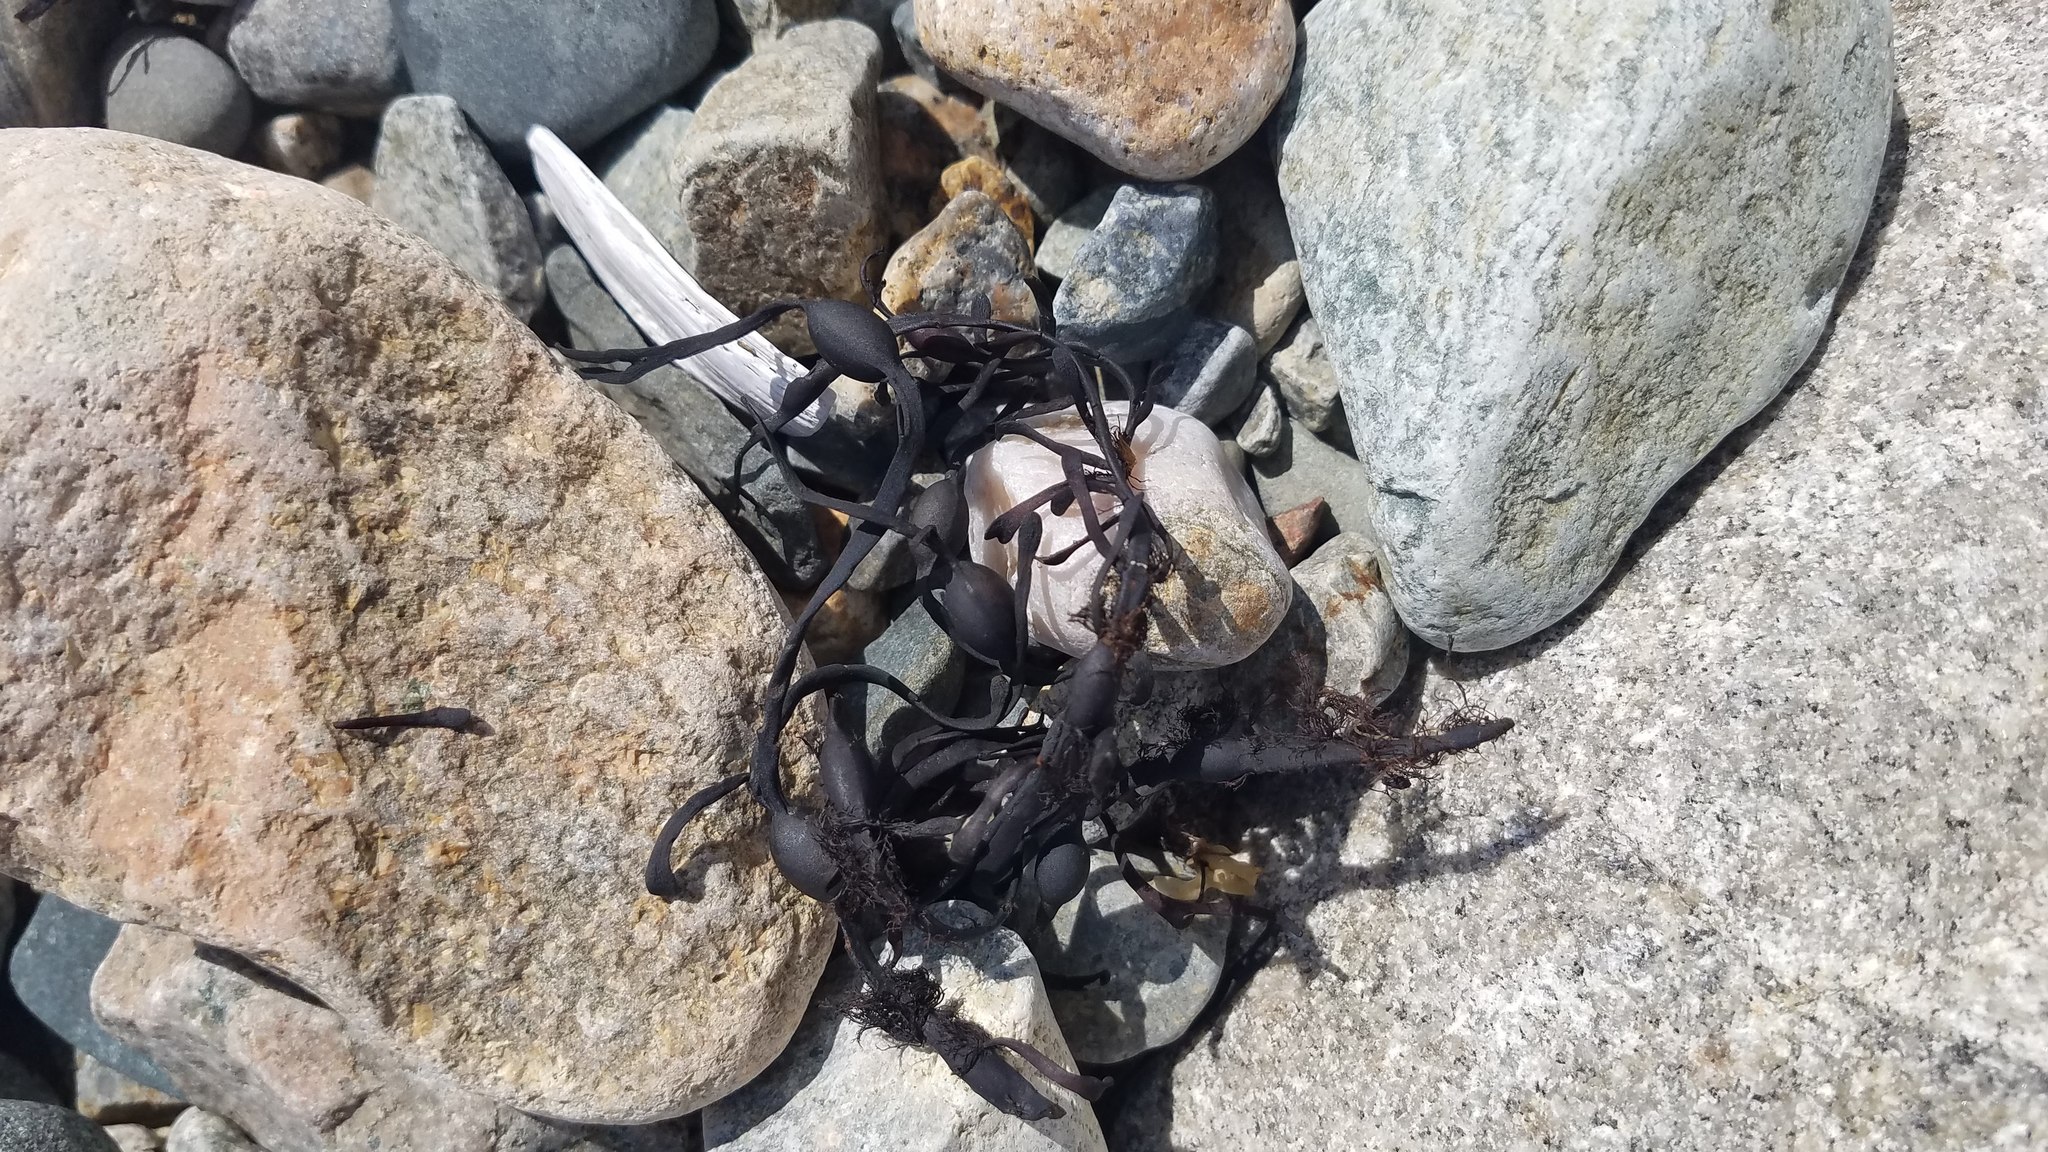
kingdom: Chromista
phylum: Ochrophyta
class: Phaeophyceae
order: Fucales
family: Fucaceae
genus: Ascophyllum
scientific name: Ascophyllum nodosum
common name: Knotted wrack
